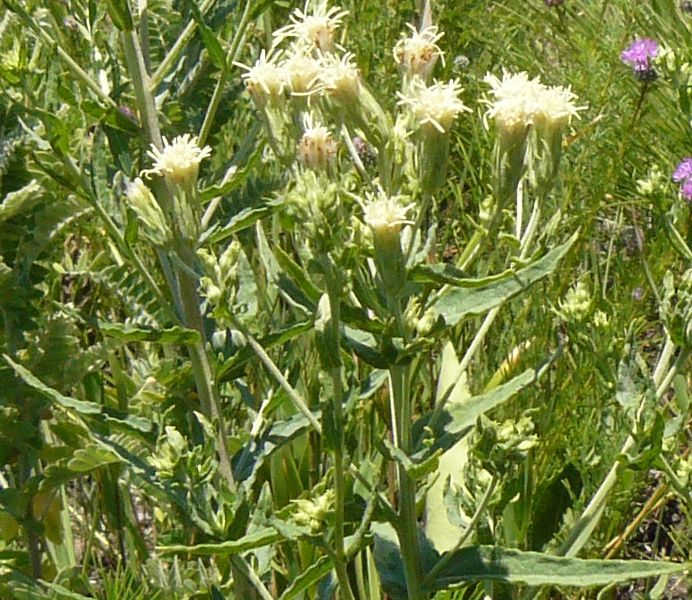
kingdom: Plantae
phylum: Tracheophyta
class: Magnoliopsida
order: Asterales
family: Asteraceae
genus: Brickellia
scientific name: Brickellia eupatorioides
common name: False boneset
